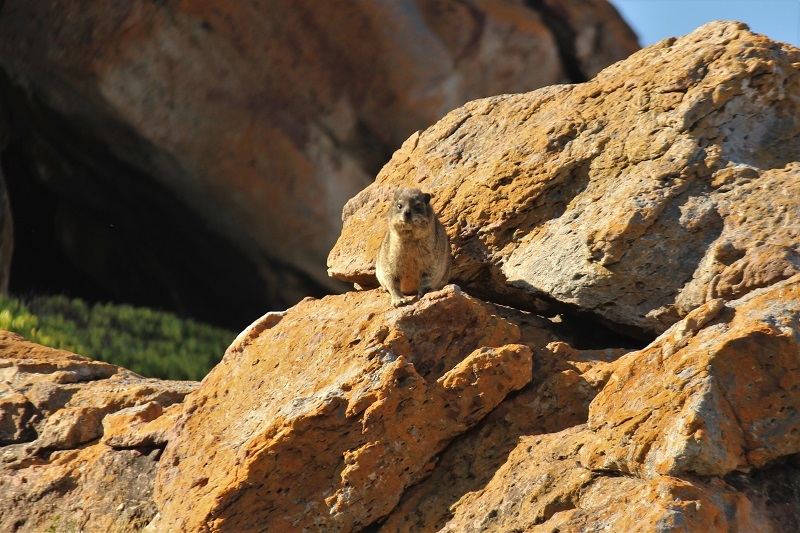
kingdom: Animalia
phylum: Chordata
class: Mammalia
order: Hyracoidea
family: Procaviidae
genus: Procavia
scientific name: Procavia capensis
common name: Rock hyrax
